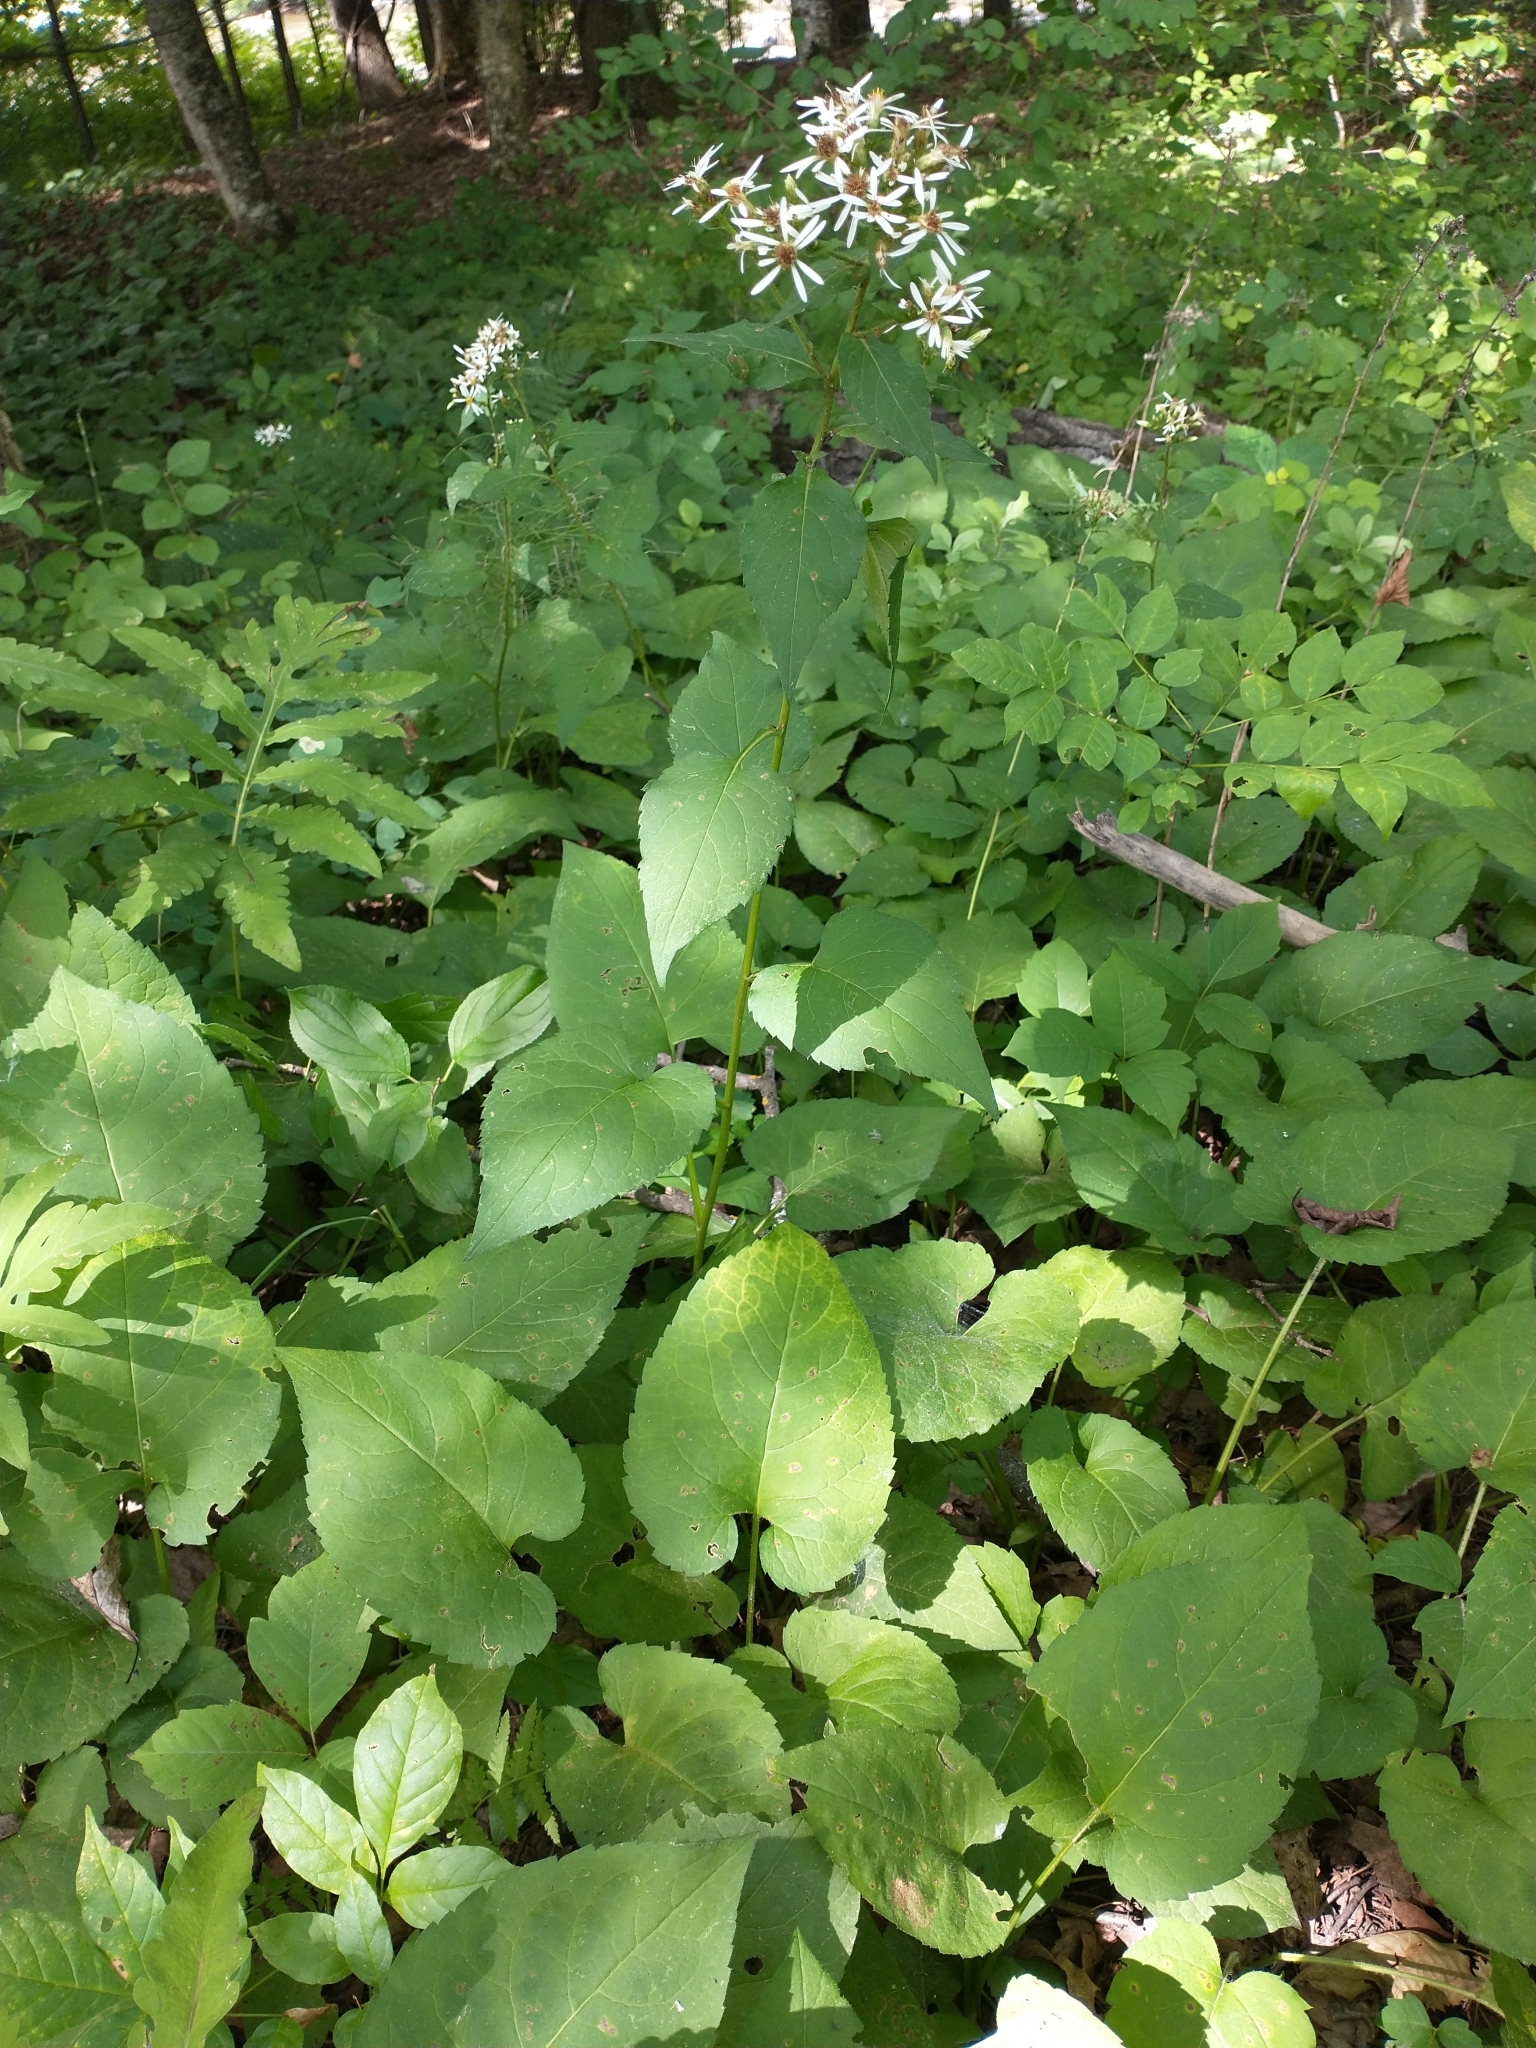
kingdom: Plantae
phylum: Tracheophyta
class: Magnoliopsida
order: Asterales
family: Asteraceae
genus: Eurybia
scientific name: Eurybia macrophylla
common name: Big-leaved aster
